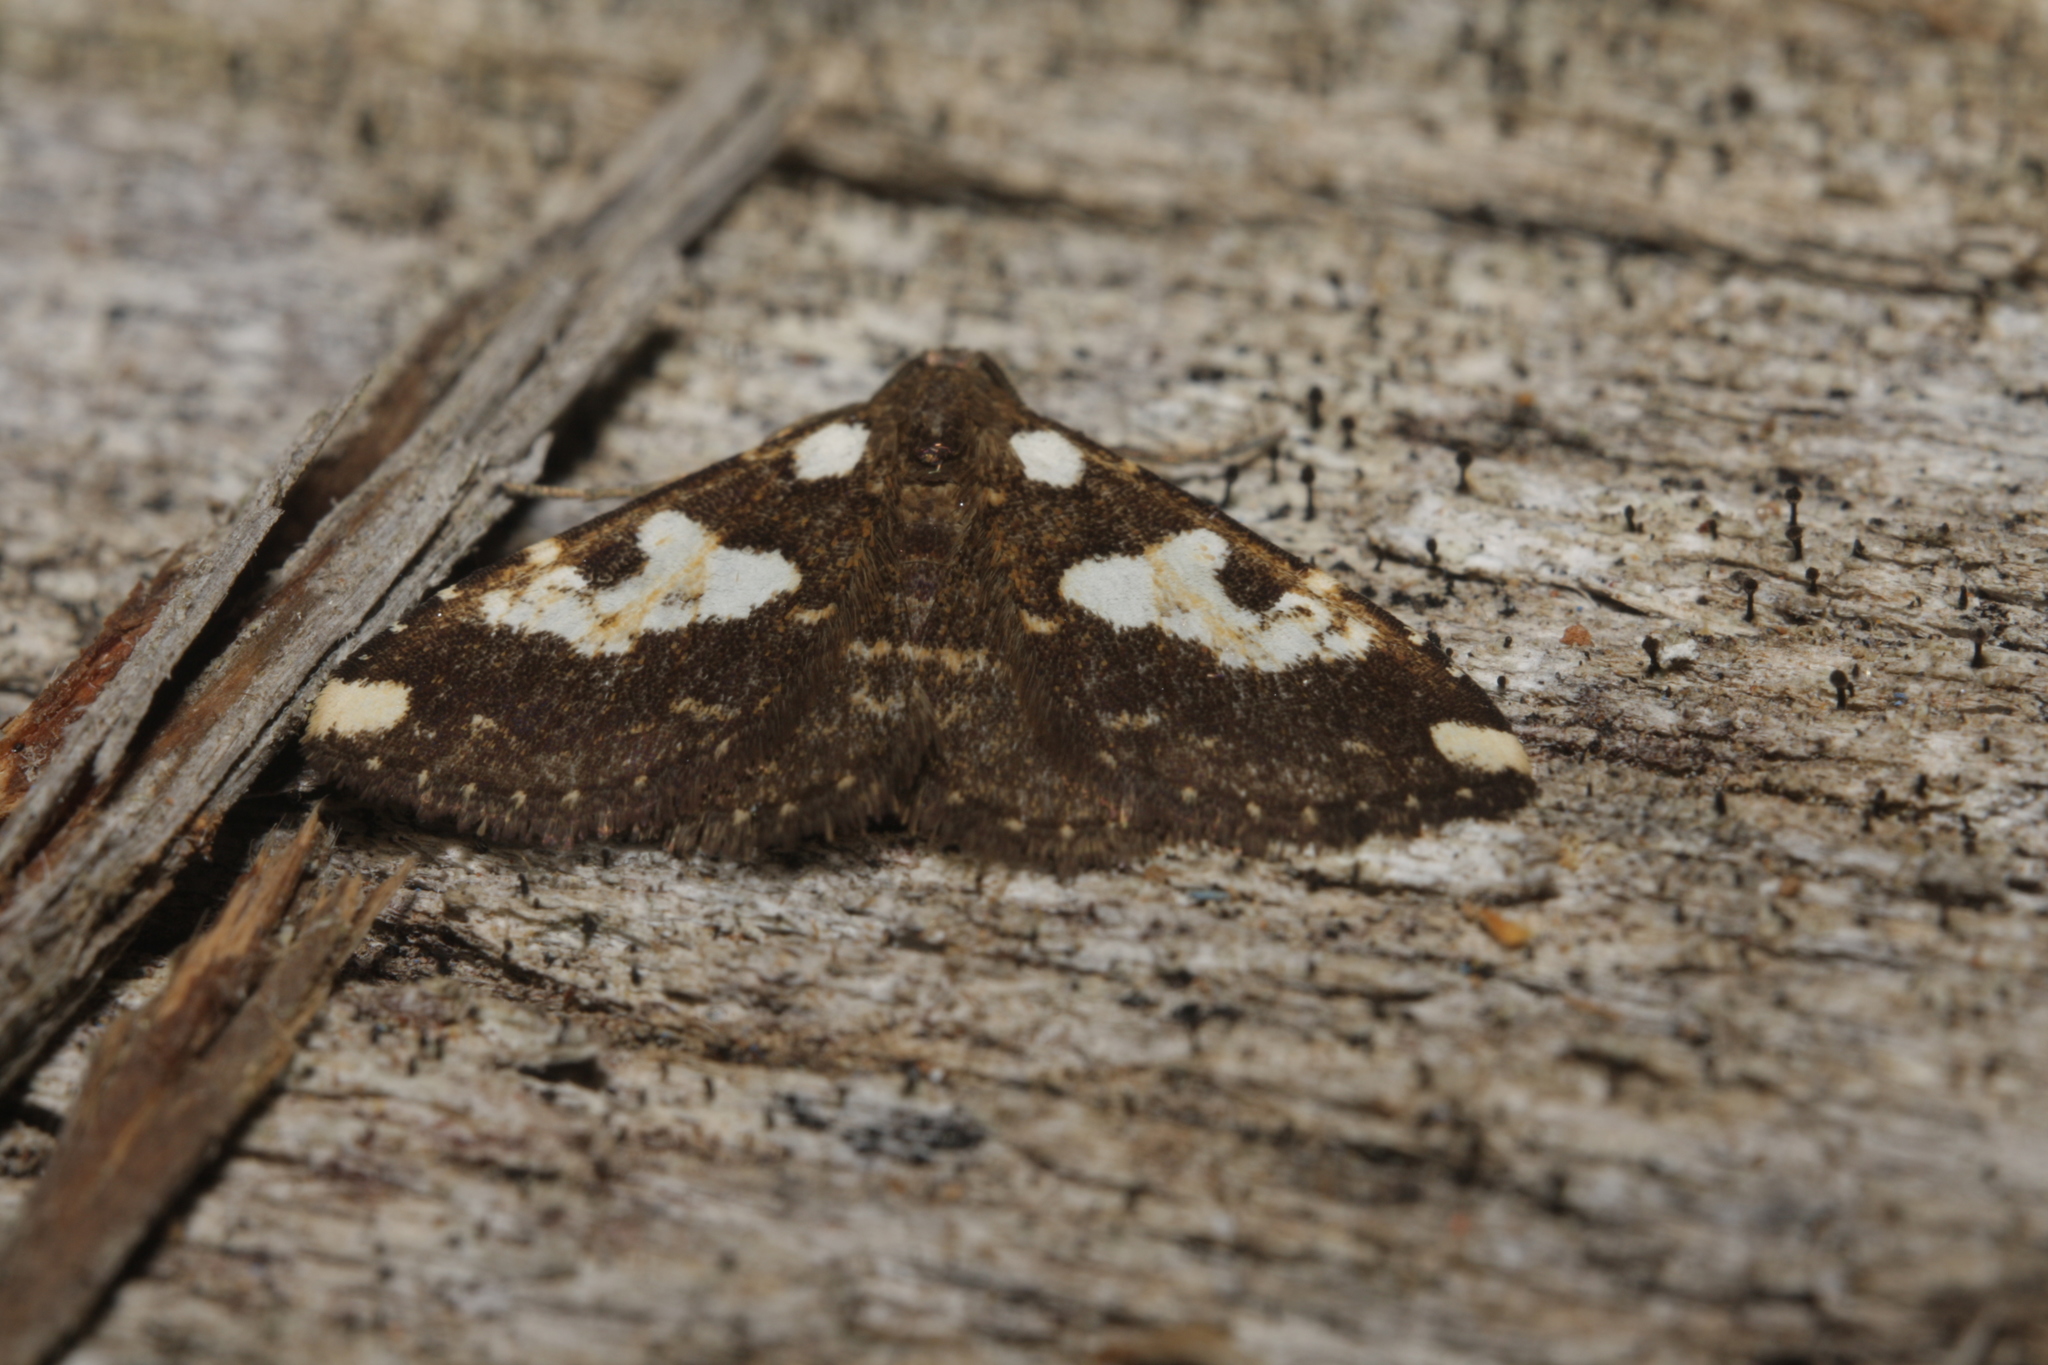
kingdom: Animalia
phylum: Arthropoda
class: Insecta
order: Lepidoptera
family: Erebidae
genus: Ostha
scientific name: Ostha rama
